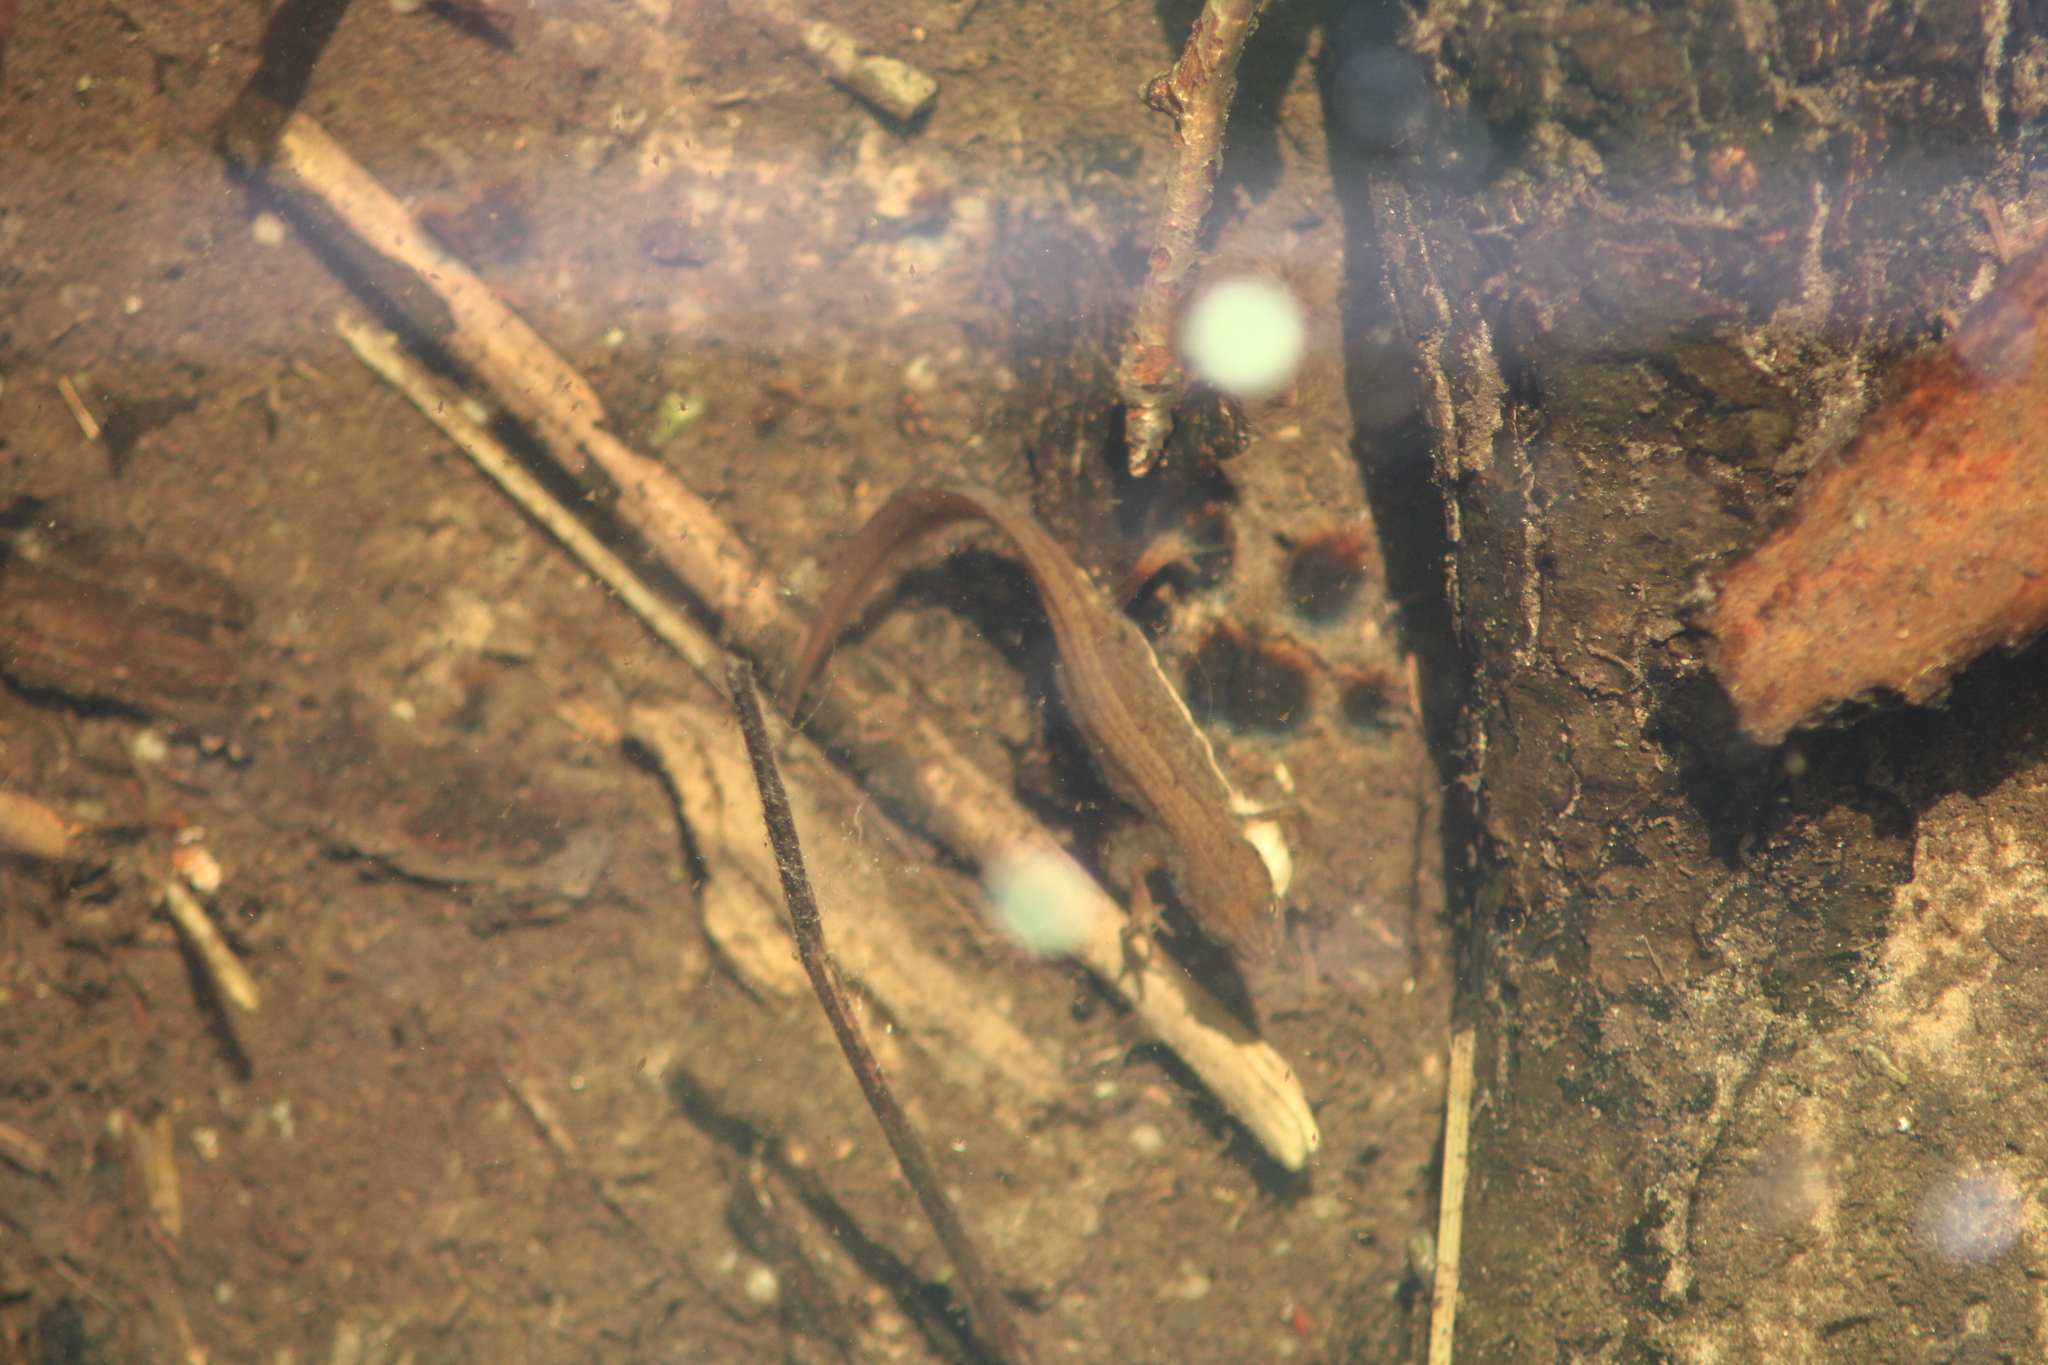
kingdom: Animalia
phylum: Chordata
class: Amphibia
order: Caudata
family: Salamandridae
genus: Lissotriton
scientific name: Lissotriton vulgaris
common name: Smooth newt
